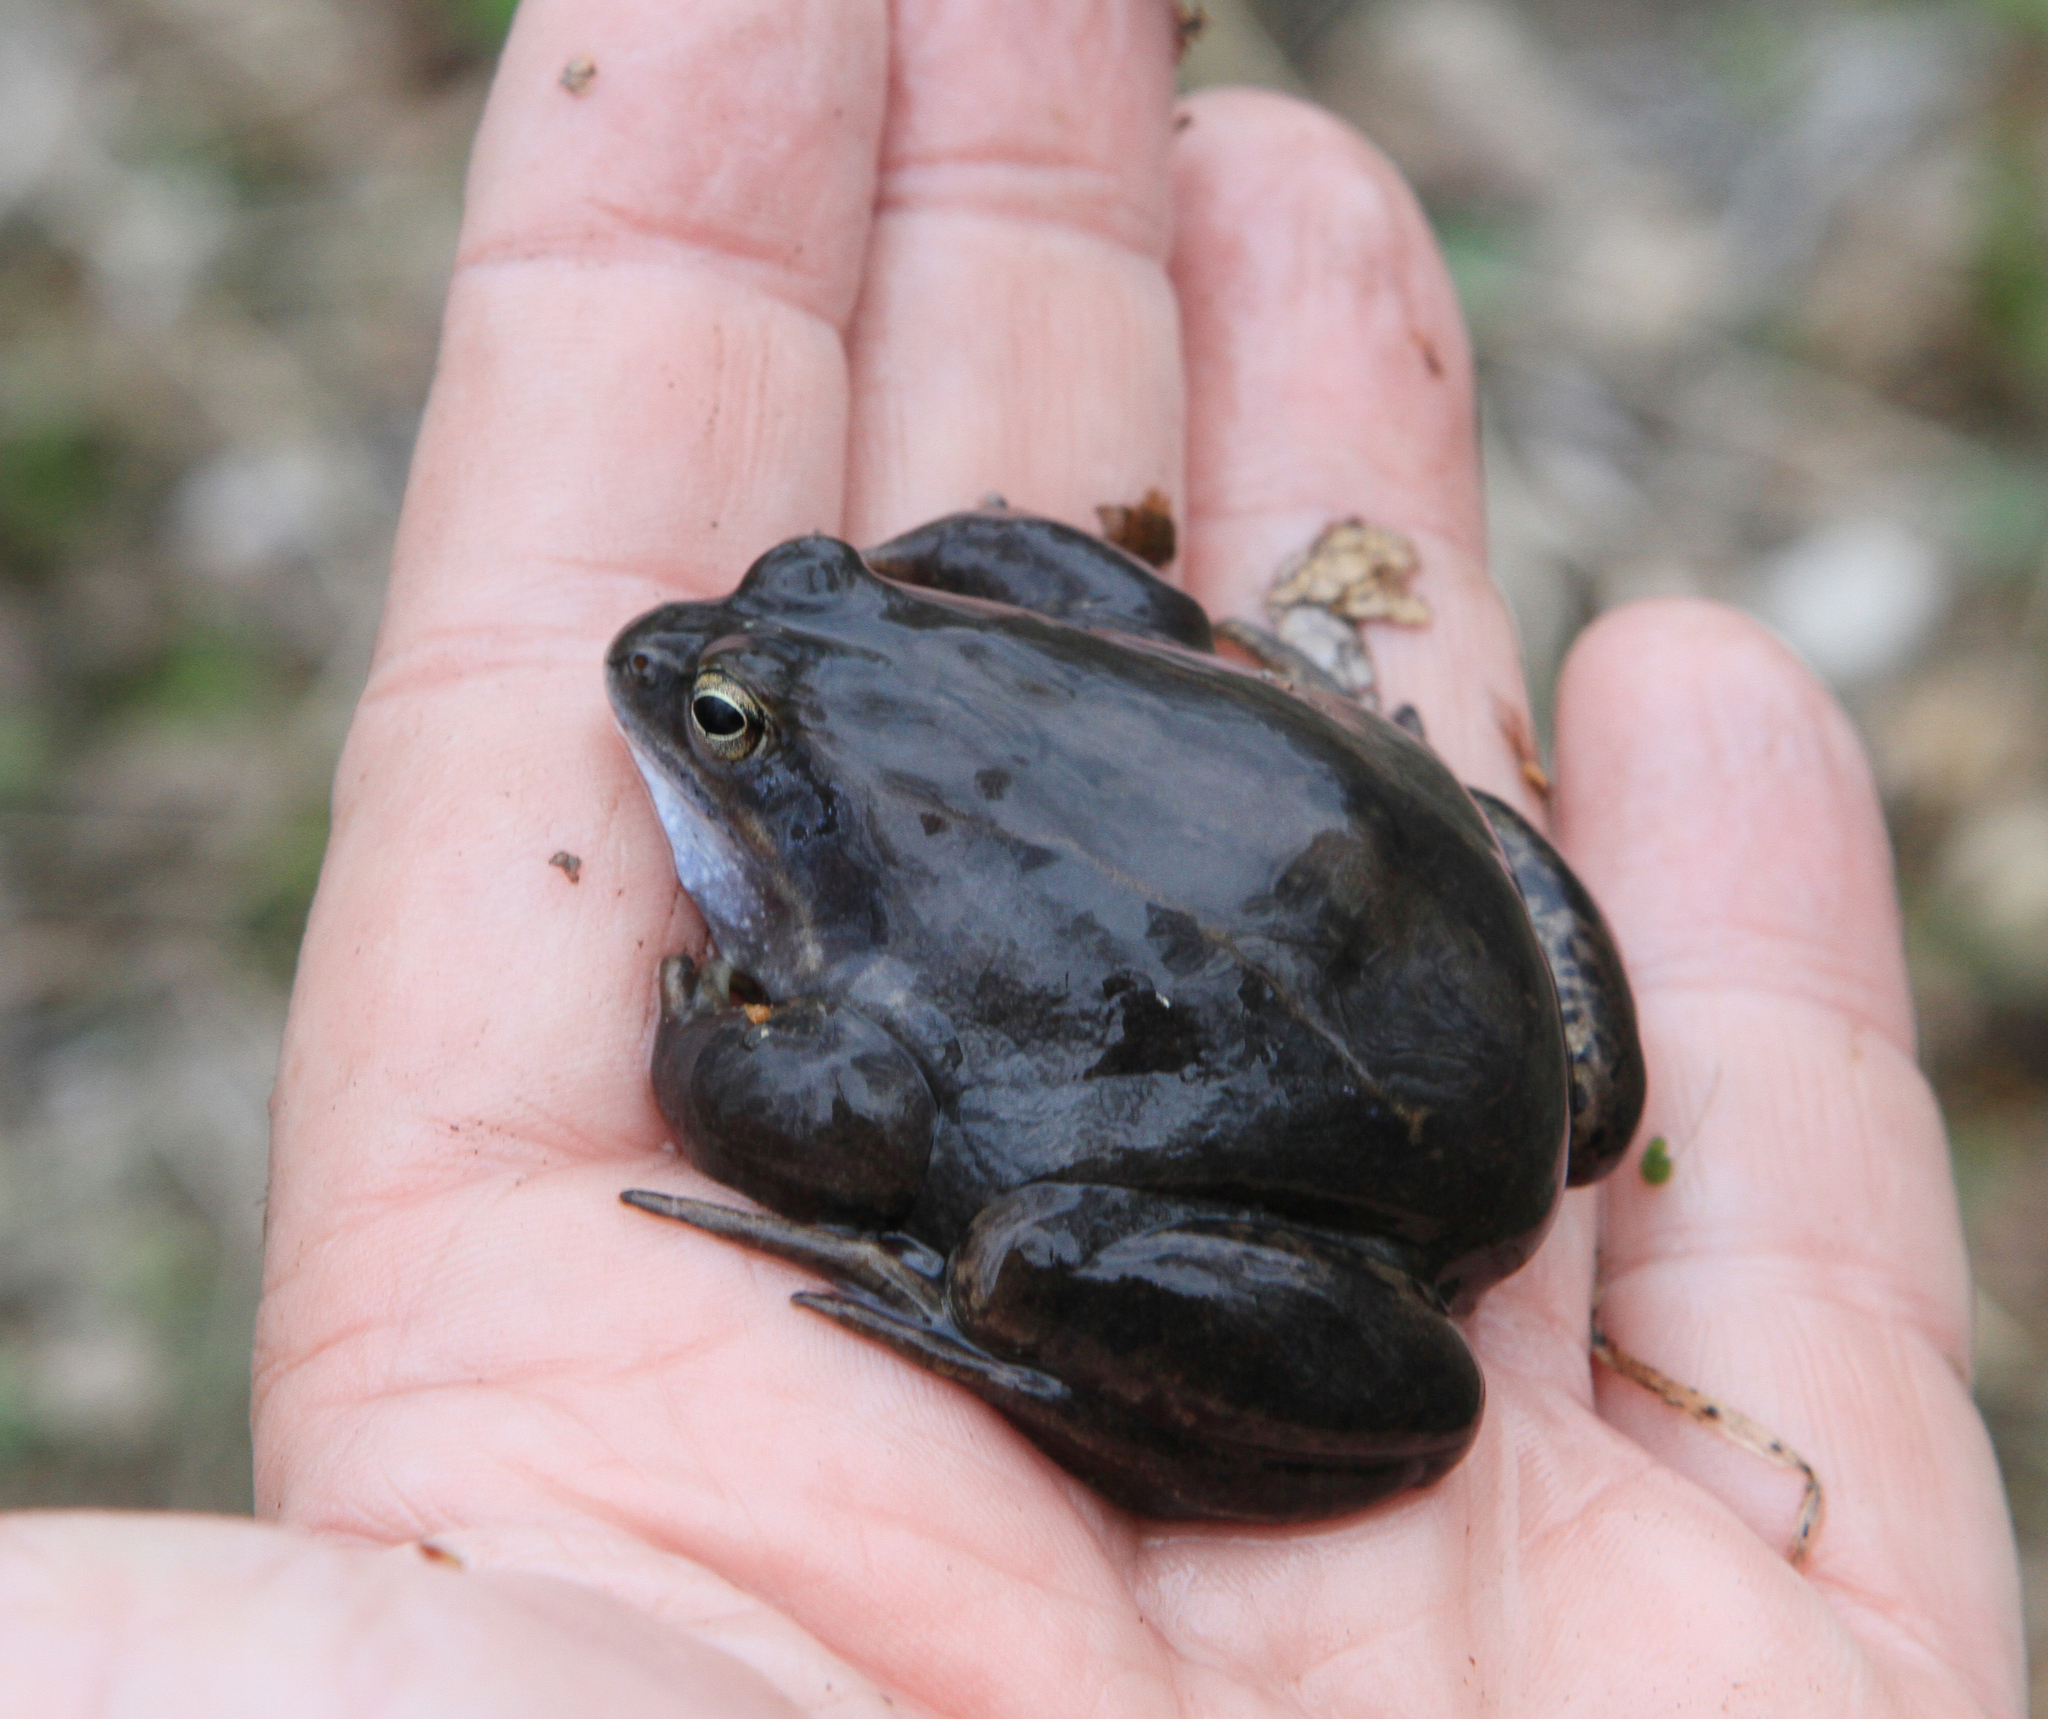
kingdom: Animalia
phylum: Chordata
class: Amphibia
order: Anura
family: Ranidae
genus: Rana
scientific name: Rana arvalis
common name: Moor frog
